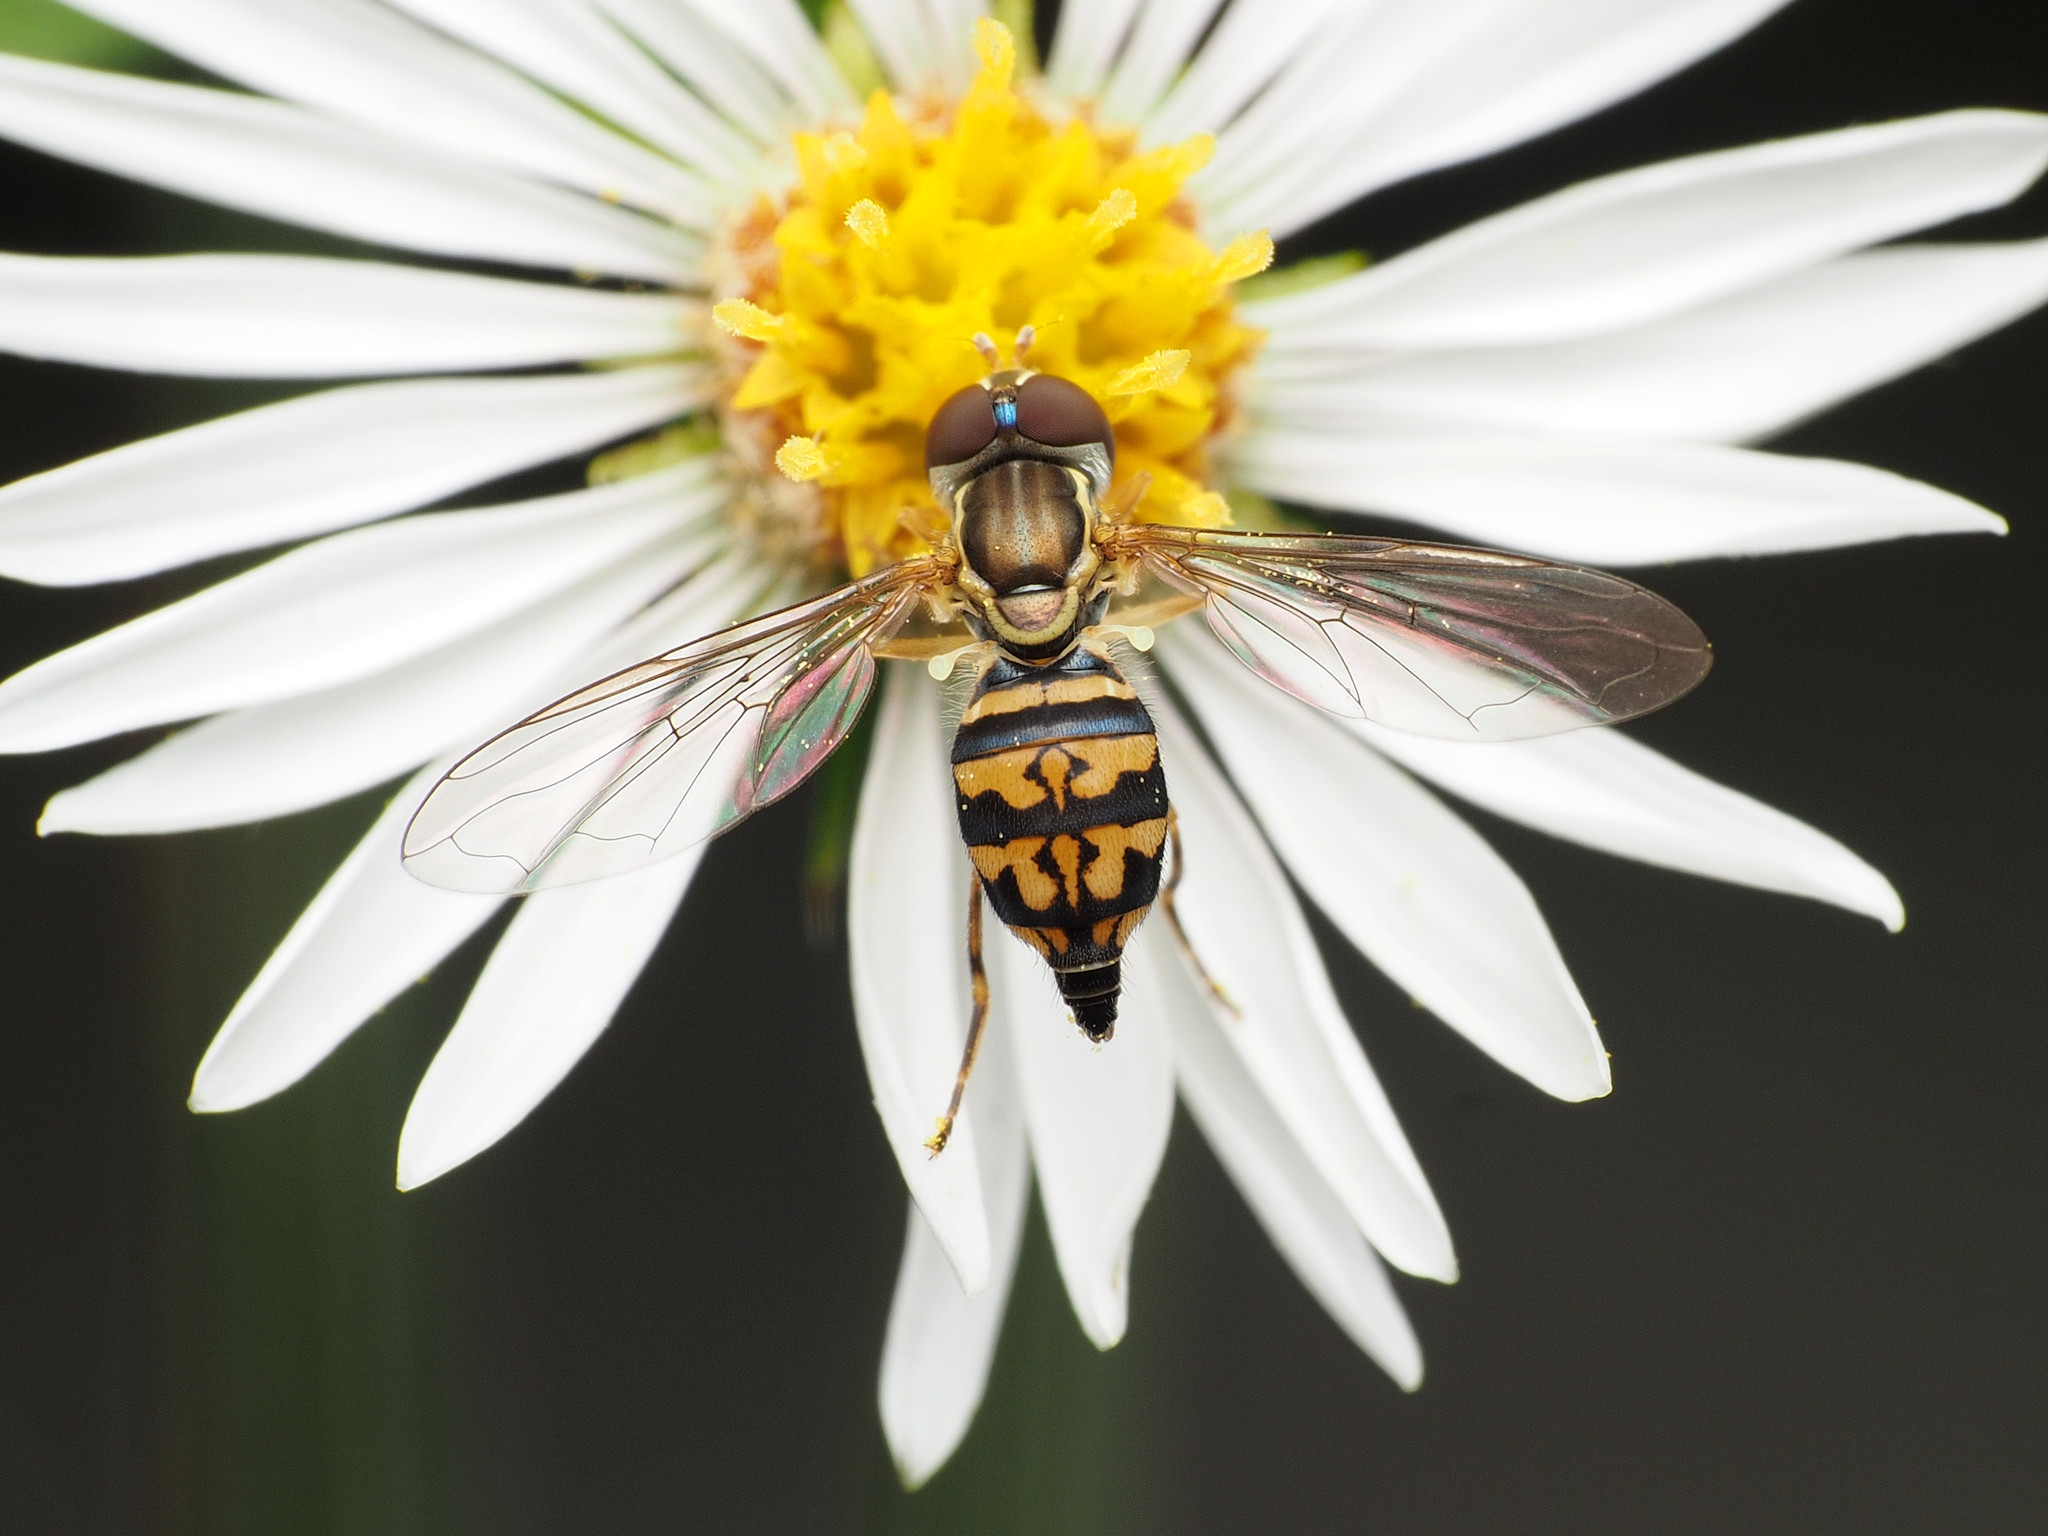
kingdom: Animalia
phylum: Arthropoda
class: Insecta
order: Diptera
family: Syrphidae
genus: Toxomerus
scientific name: Toxomerus geminatus
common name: Eastern calligrapher
